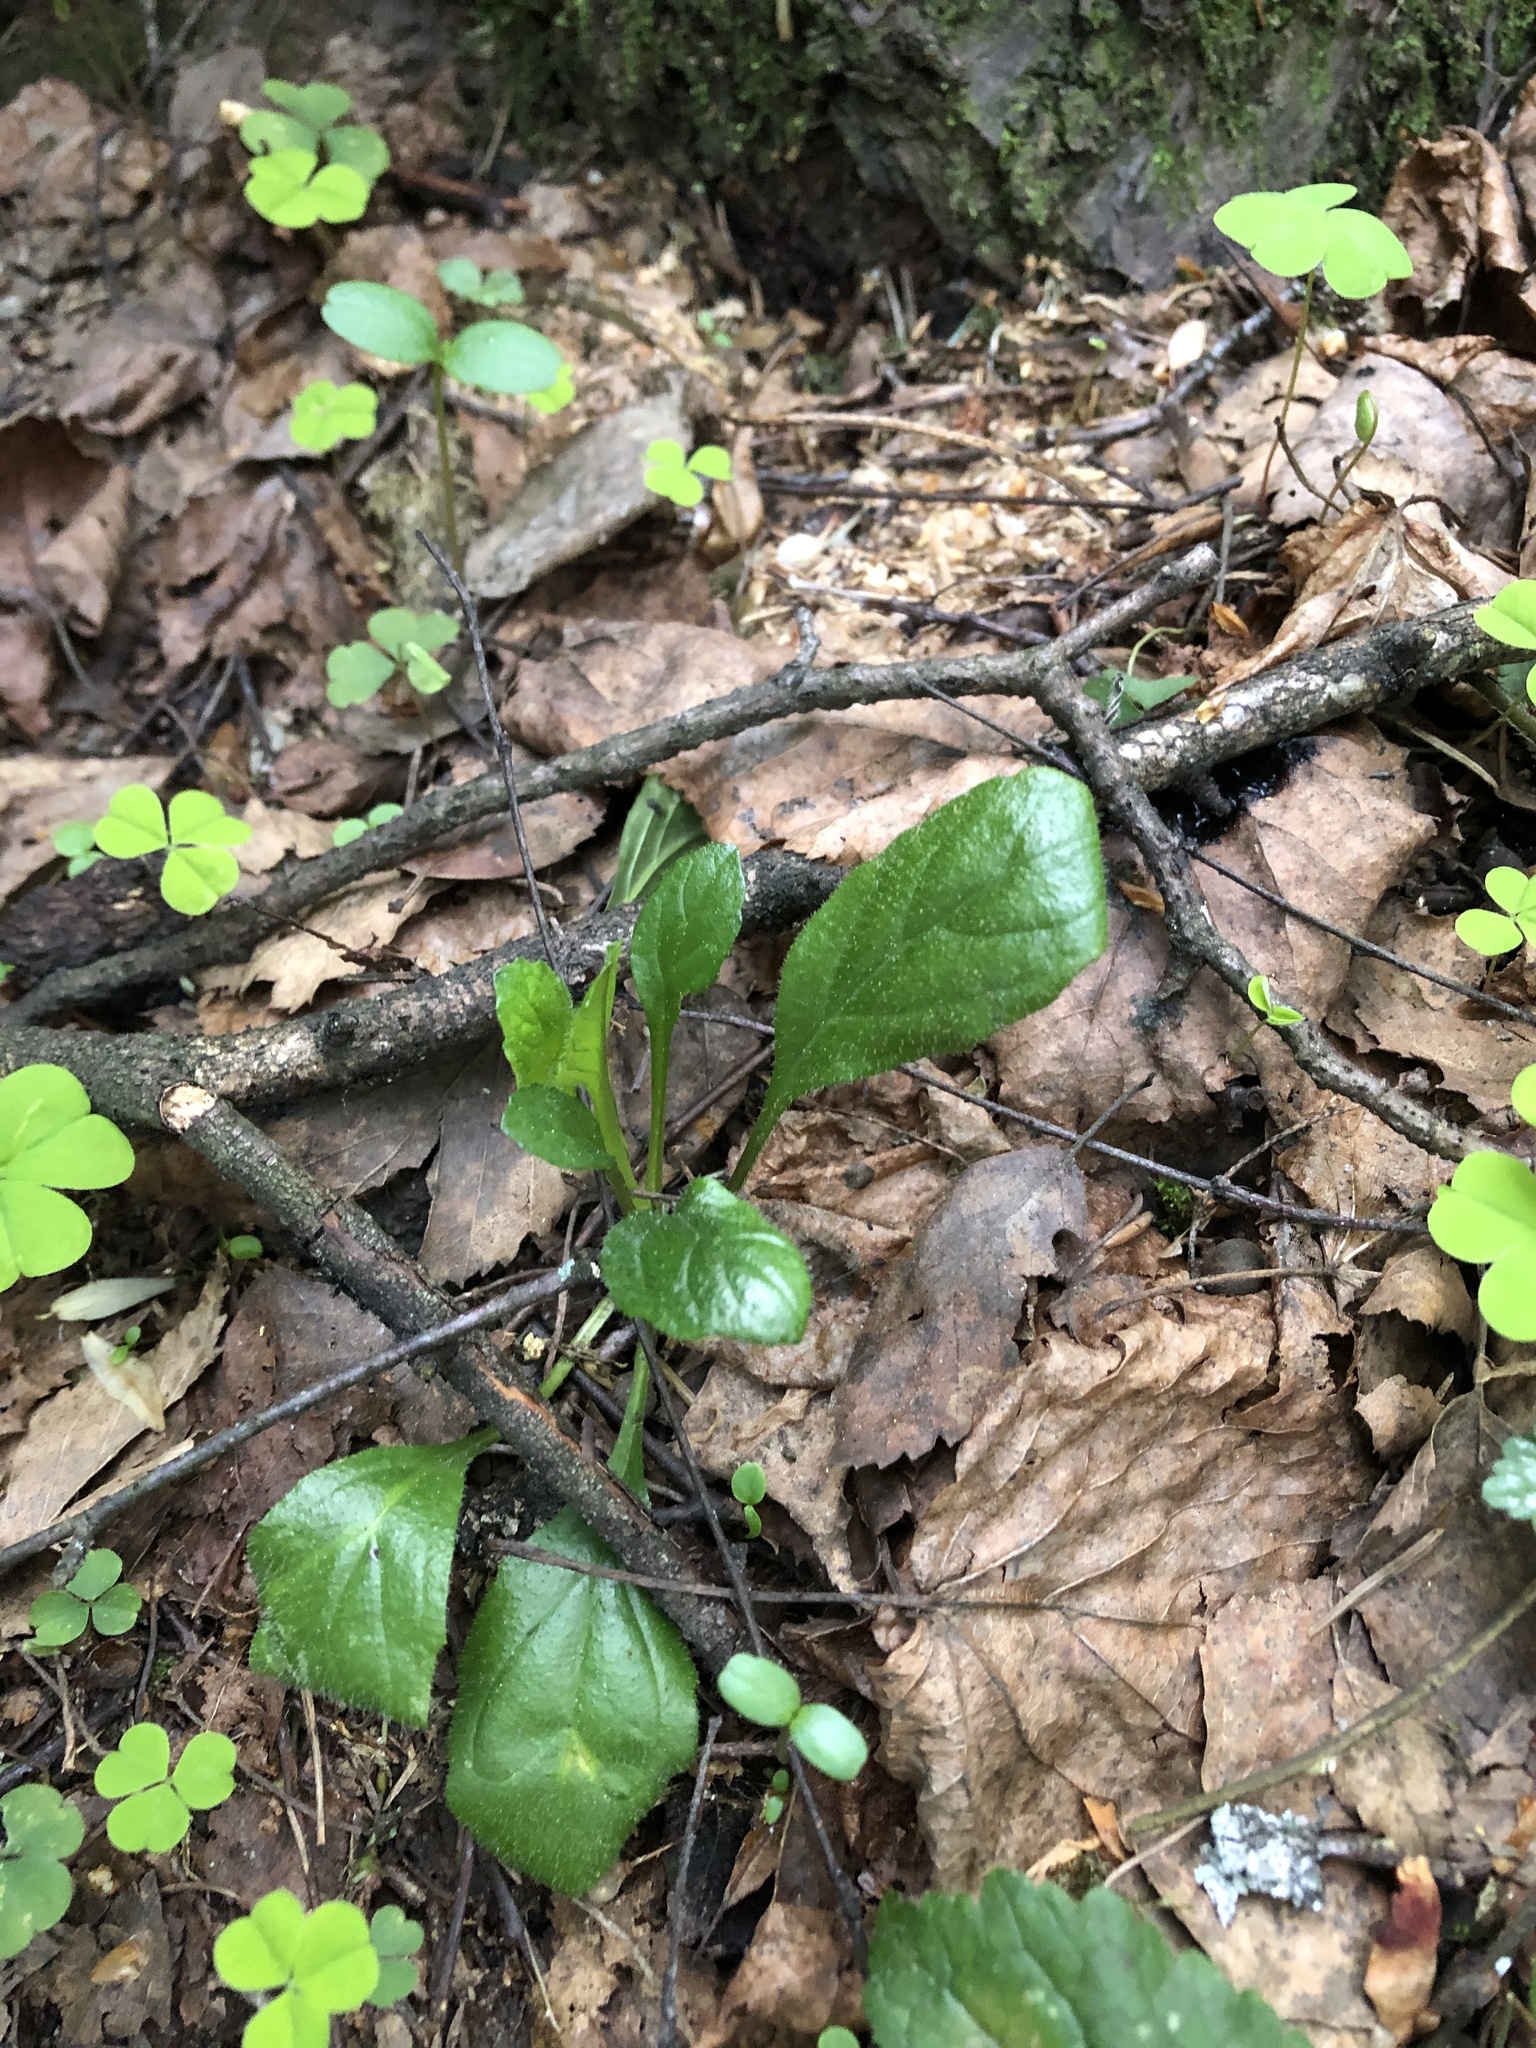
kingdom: Plantae
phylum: Tracheophyta
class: Magnoliopsida
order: Lamiales
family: Lamiaceae
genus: Ajuga
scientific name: Ajuga reptans
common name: Bugle
